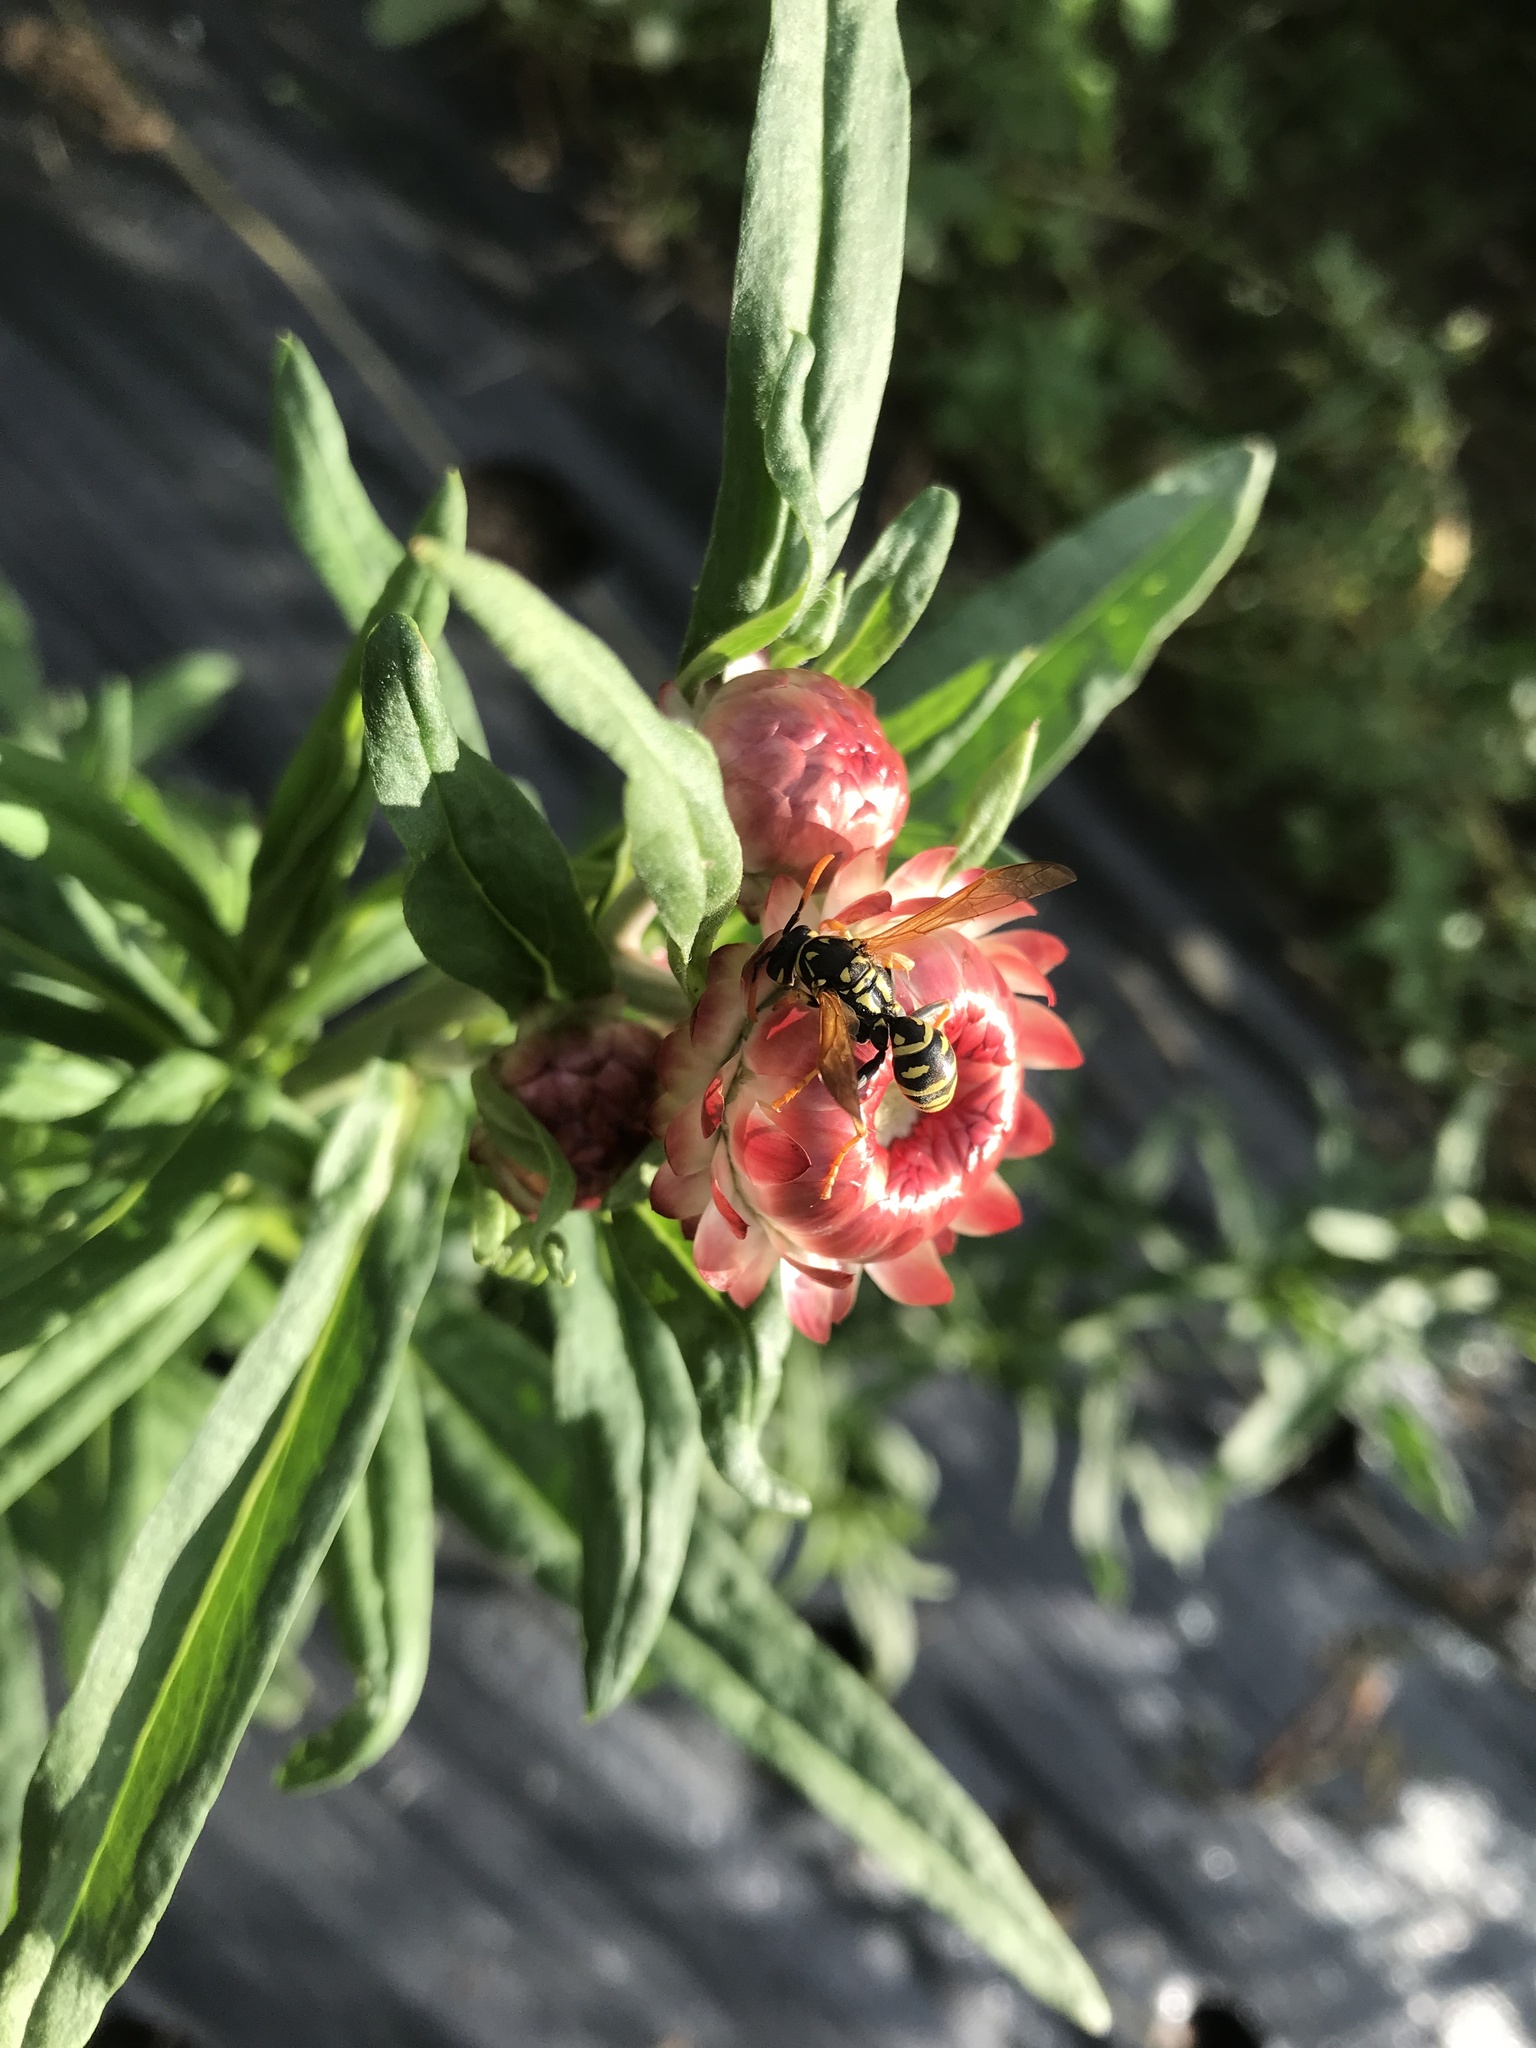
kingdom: Animalia
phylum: Arthropoda
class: Insecta
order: Hymenoptera
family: Eumenidae
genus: Polistes
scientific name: Polistes dominula
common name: Paper wasp
